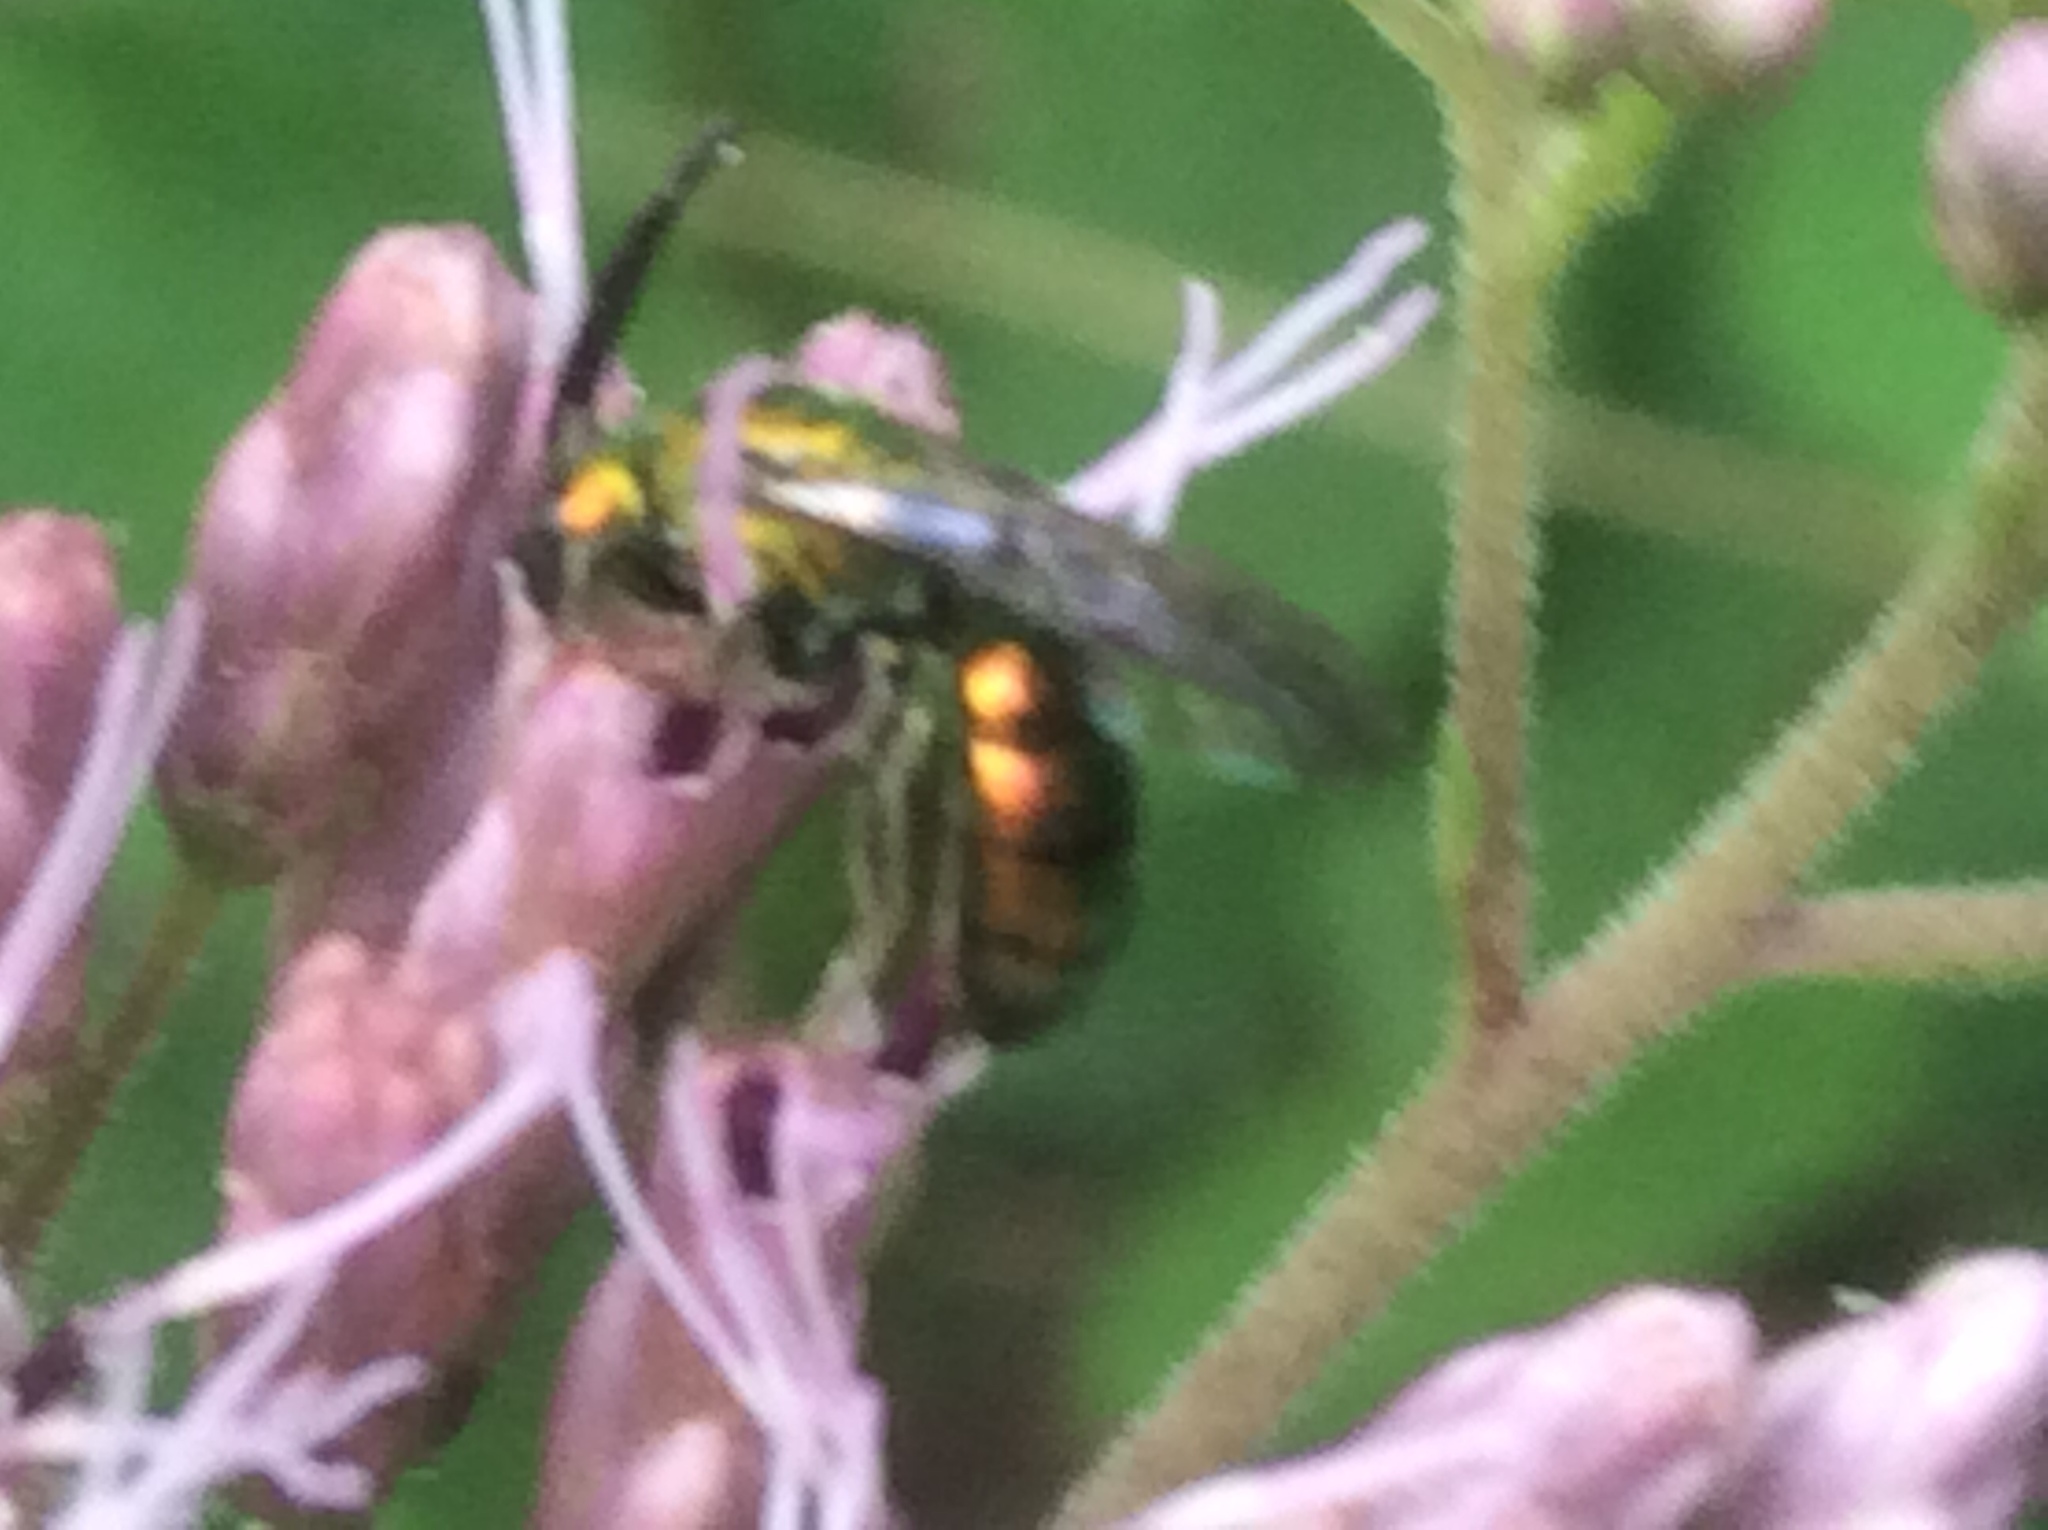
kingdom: Animalia
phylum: Arthropoda
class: Insecta
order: Hymenoptera
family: Halictidae
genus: Augochlora
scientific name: Augochlora pura
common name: Pure green sweat bee
